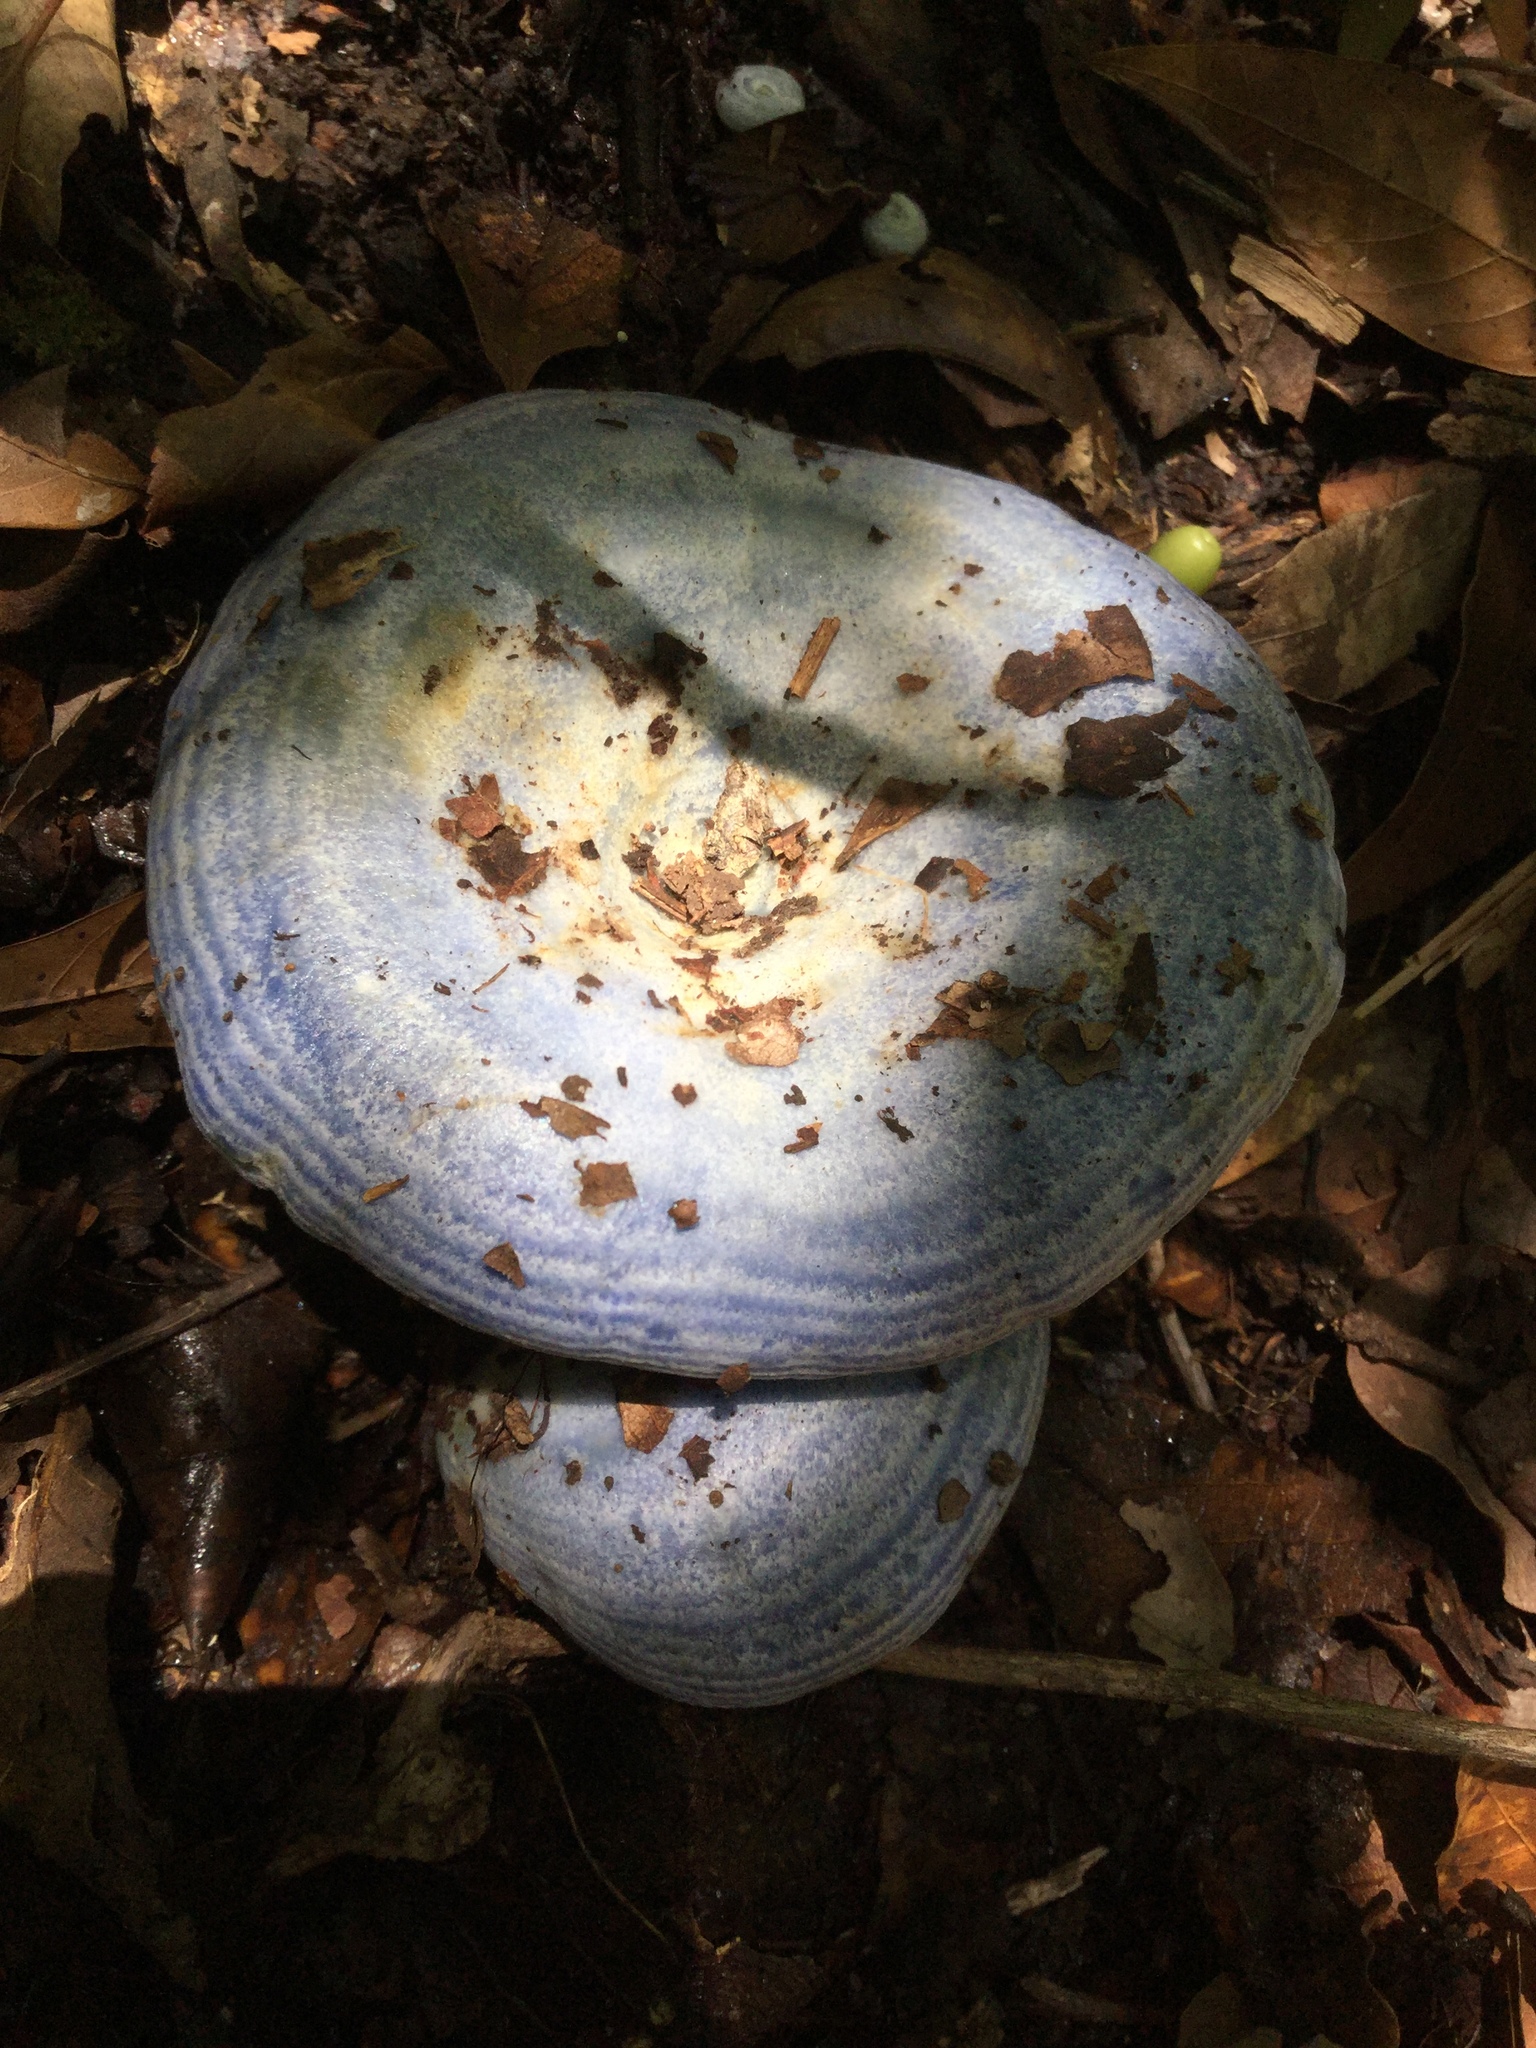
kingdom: Fungi
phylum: Basidiomycota
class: Agaricomycetes
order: Russulales
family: Russulaceae
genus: Lactarius
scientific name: Lactarius indigo
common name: Indigo milk cap
